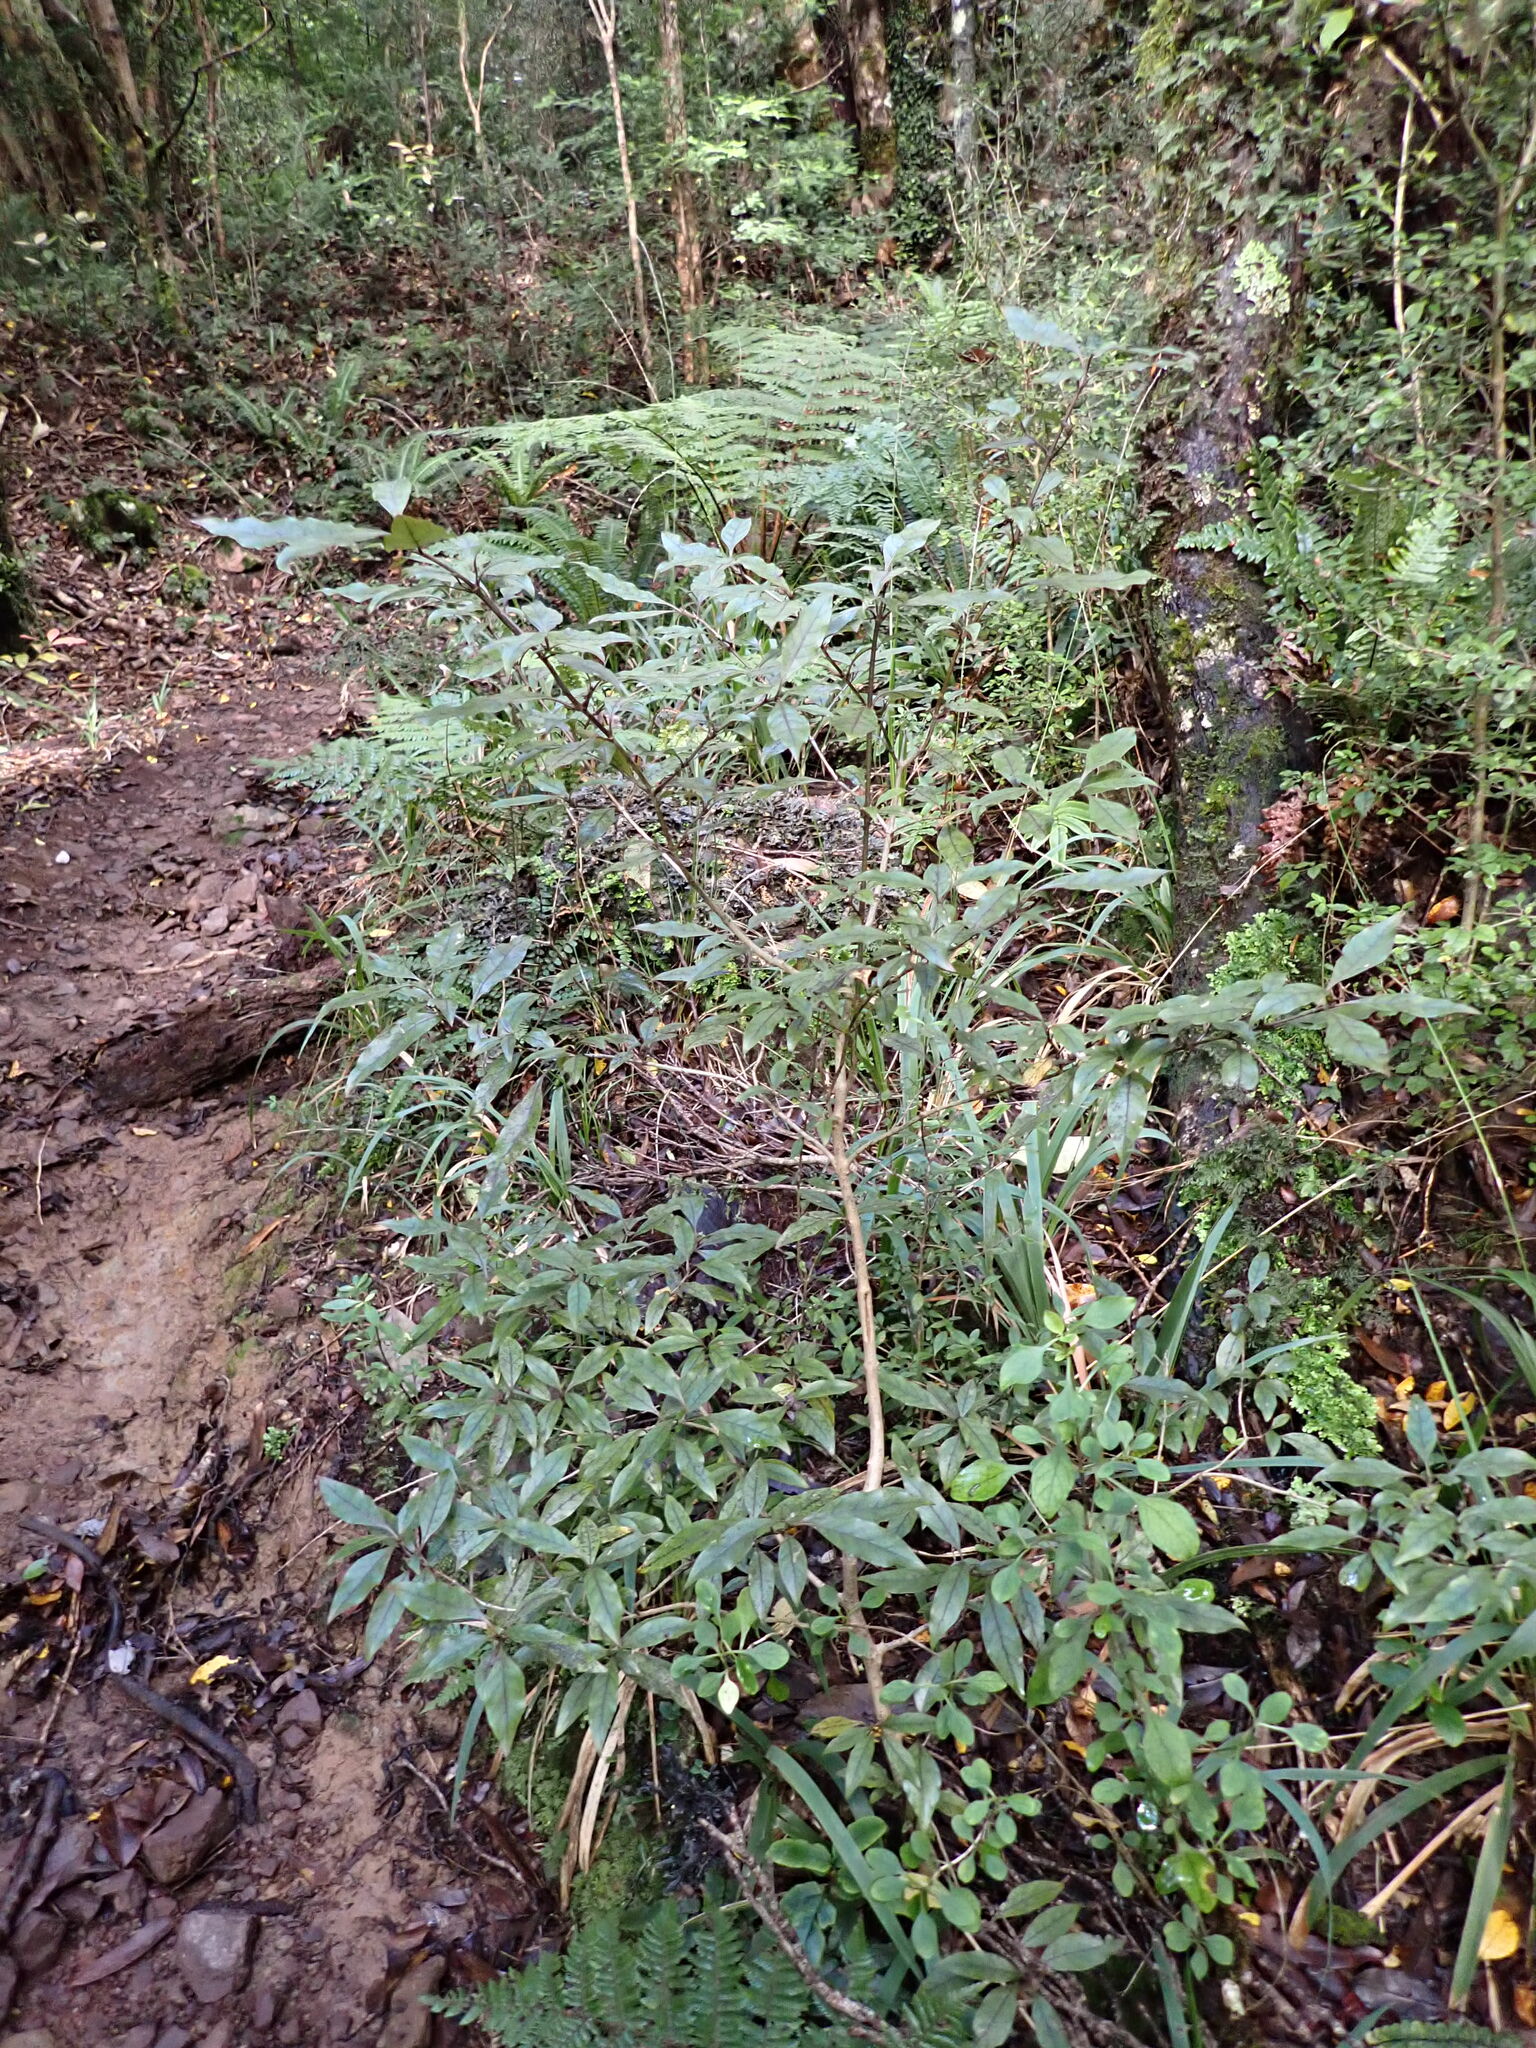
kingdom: Plantae
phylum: Tracheophyta
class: Magnoliopsida
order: Gentianales
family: Rubiaceae
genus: Coprosma
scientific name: Coprosma tenuifolia
